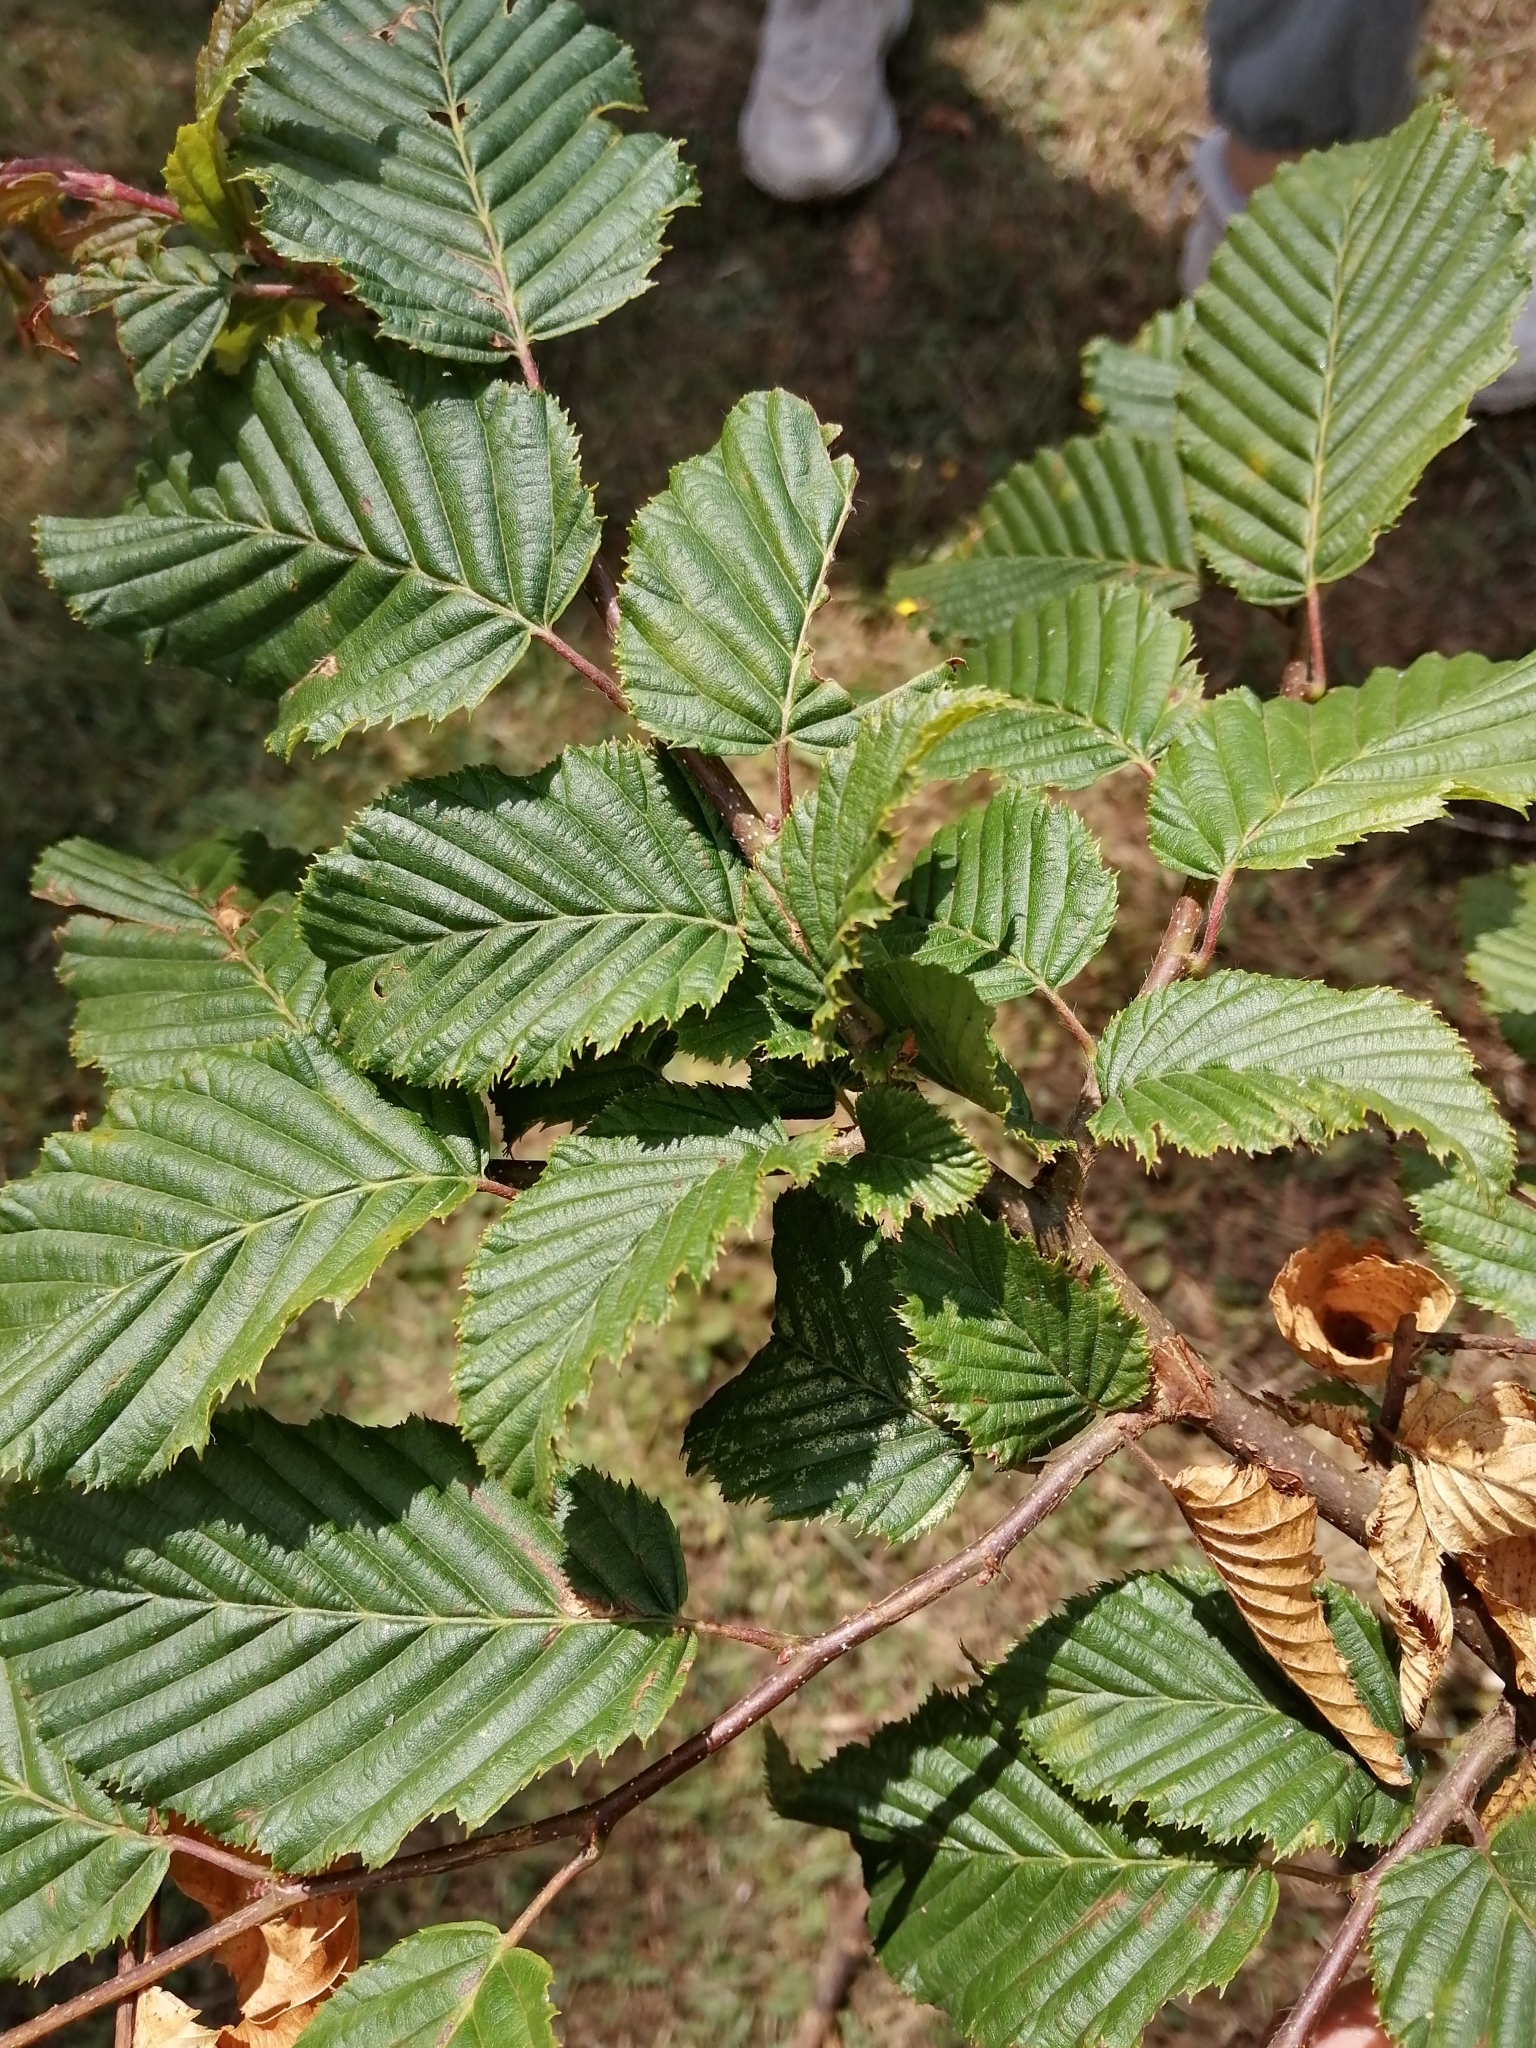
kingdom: Plantae
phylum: Tracheophyta
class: Magnoliopsida
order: Fagales
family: Betulaceae
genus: Carpinus
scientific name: Carpinus betulus
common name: Hornbeam
